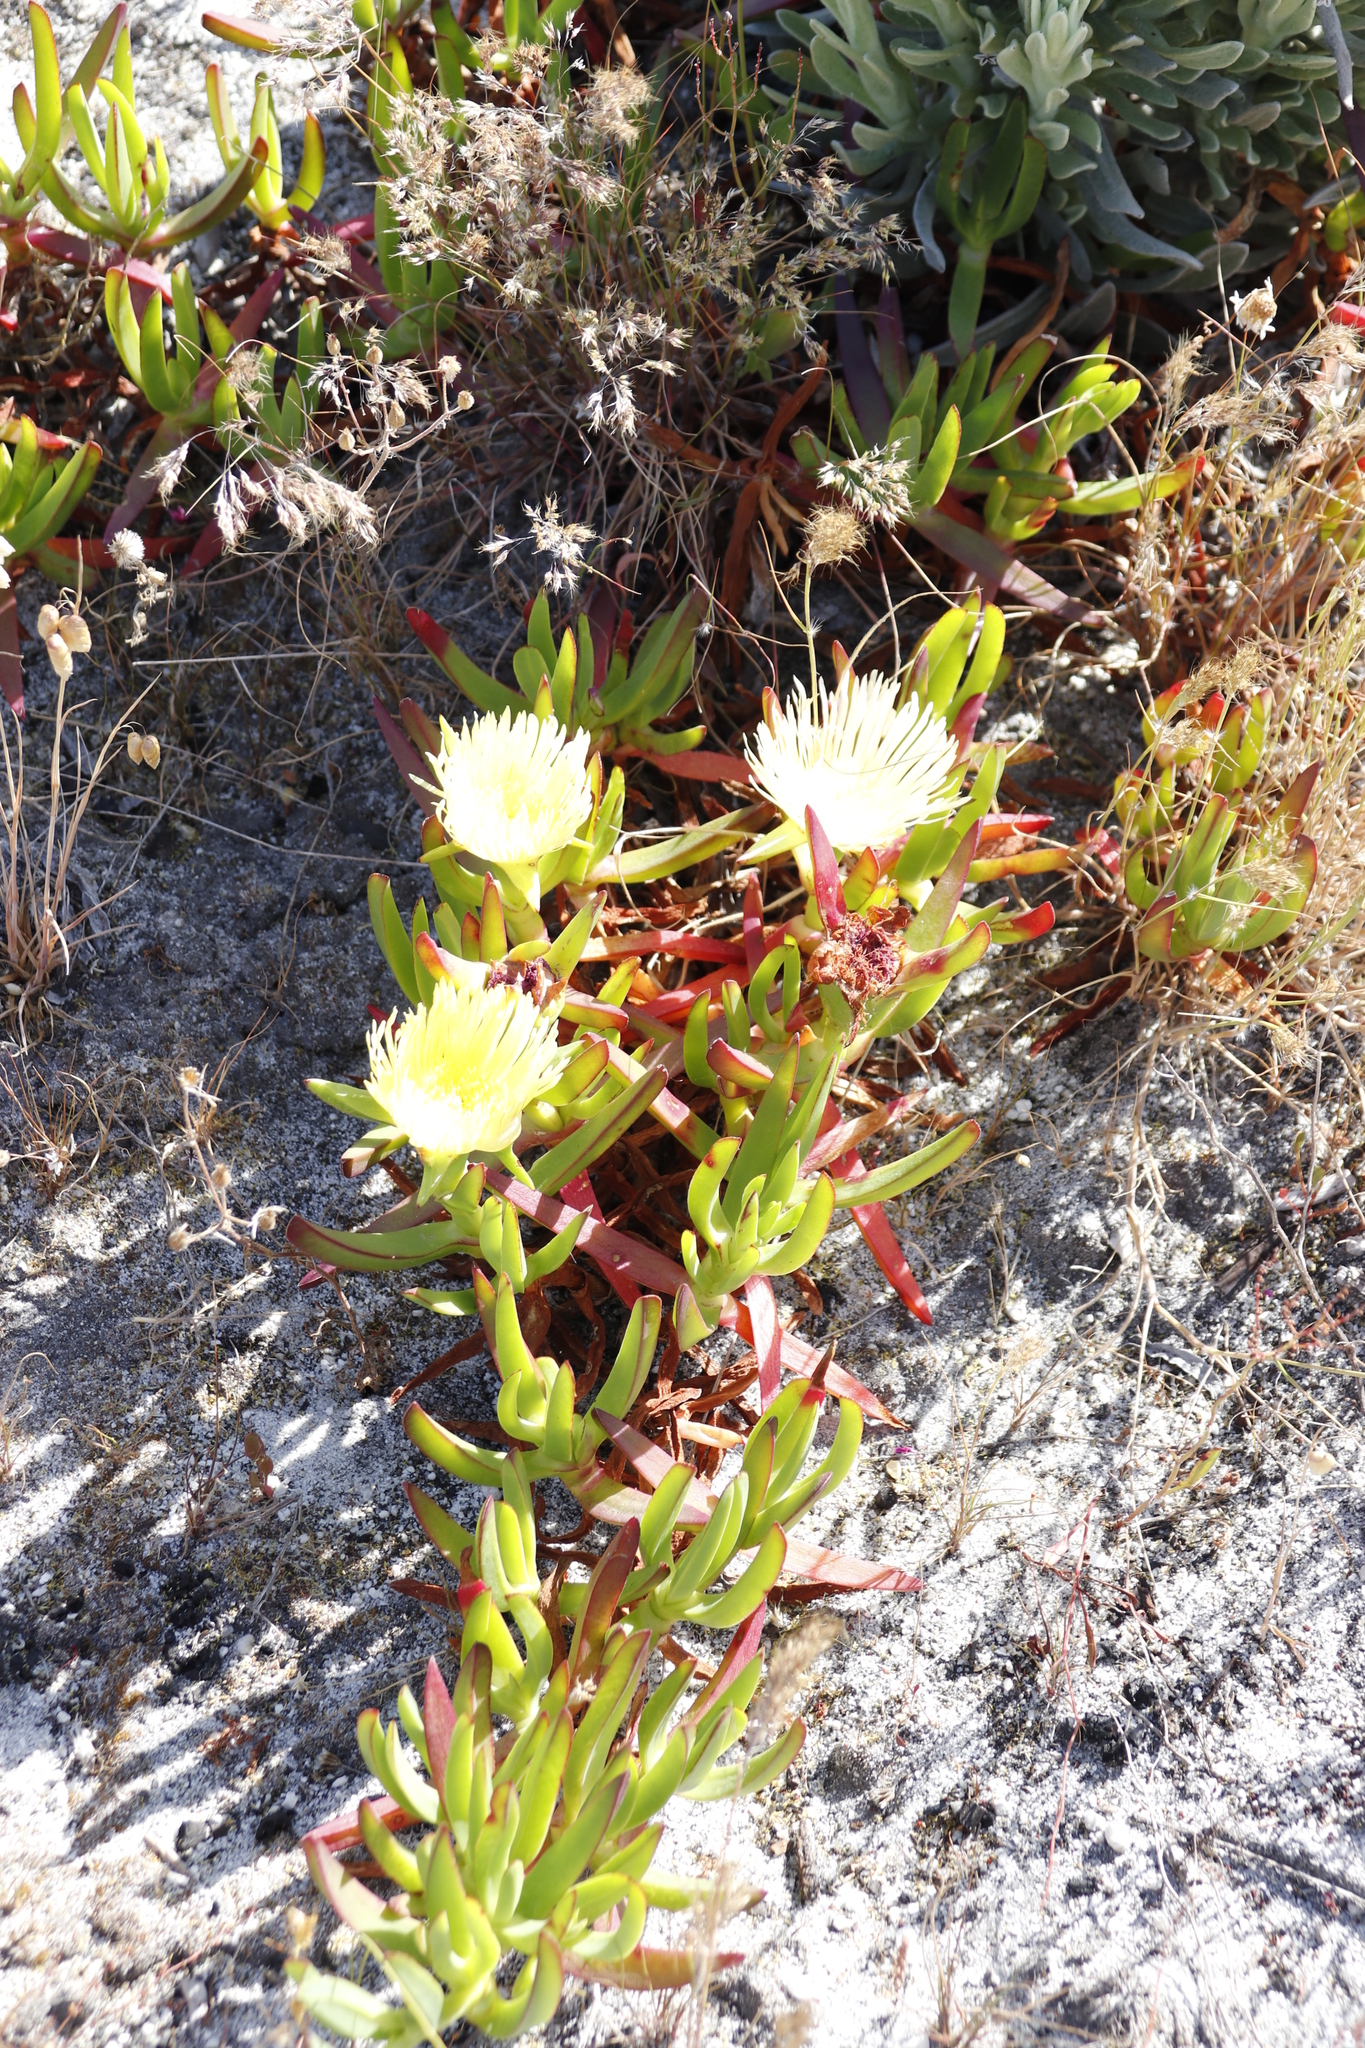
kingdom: Plantae
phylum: Tracheophyta
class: Magnoliopsida
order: Caryophyllales
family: Aizoaceae
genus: Carpobrotus
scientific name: Carpobrotus edulis
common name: Hottentot-fig
